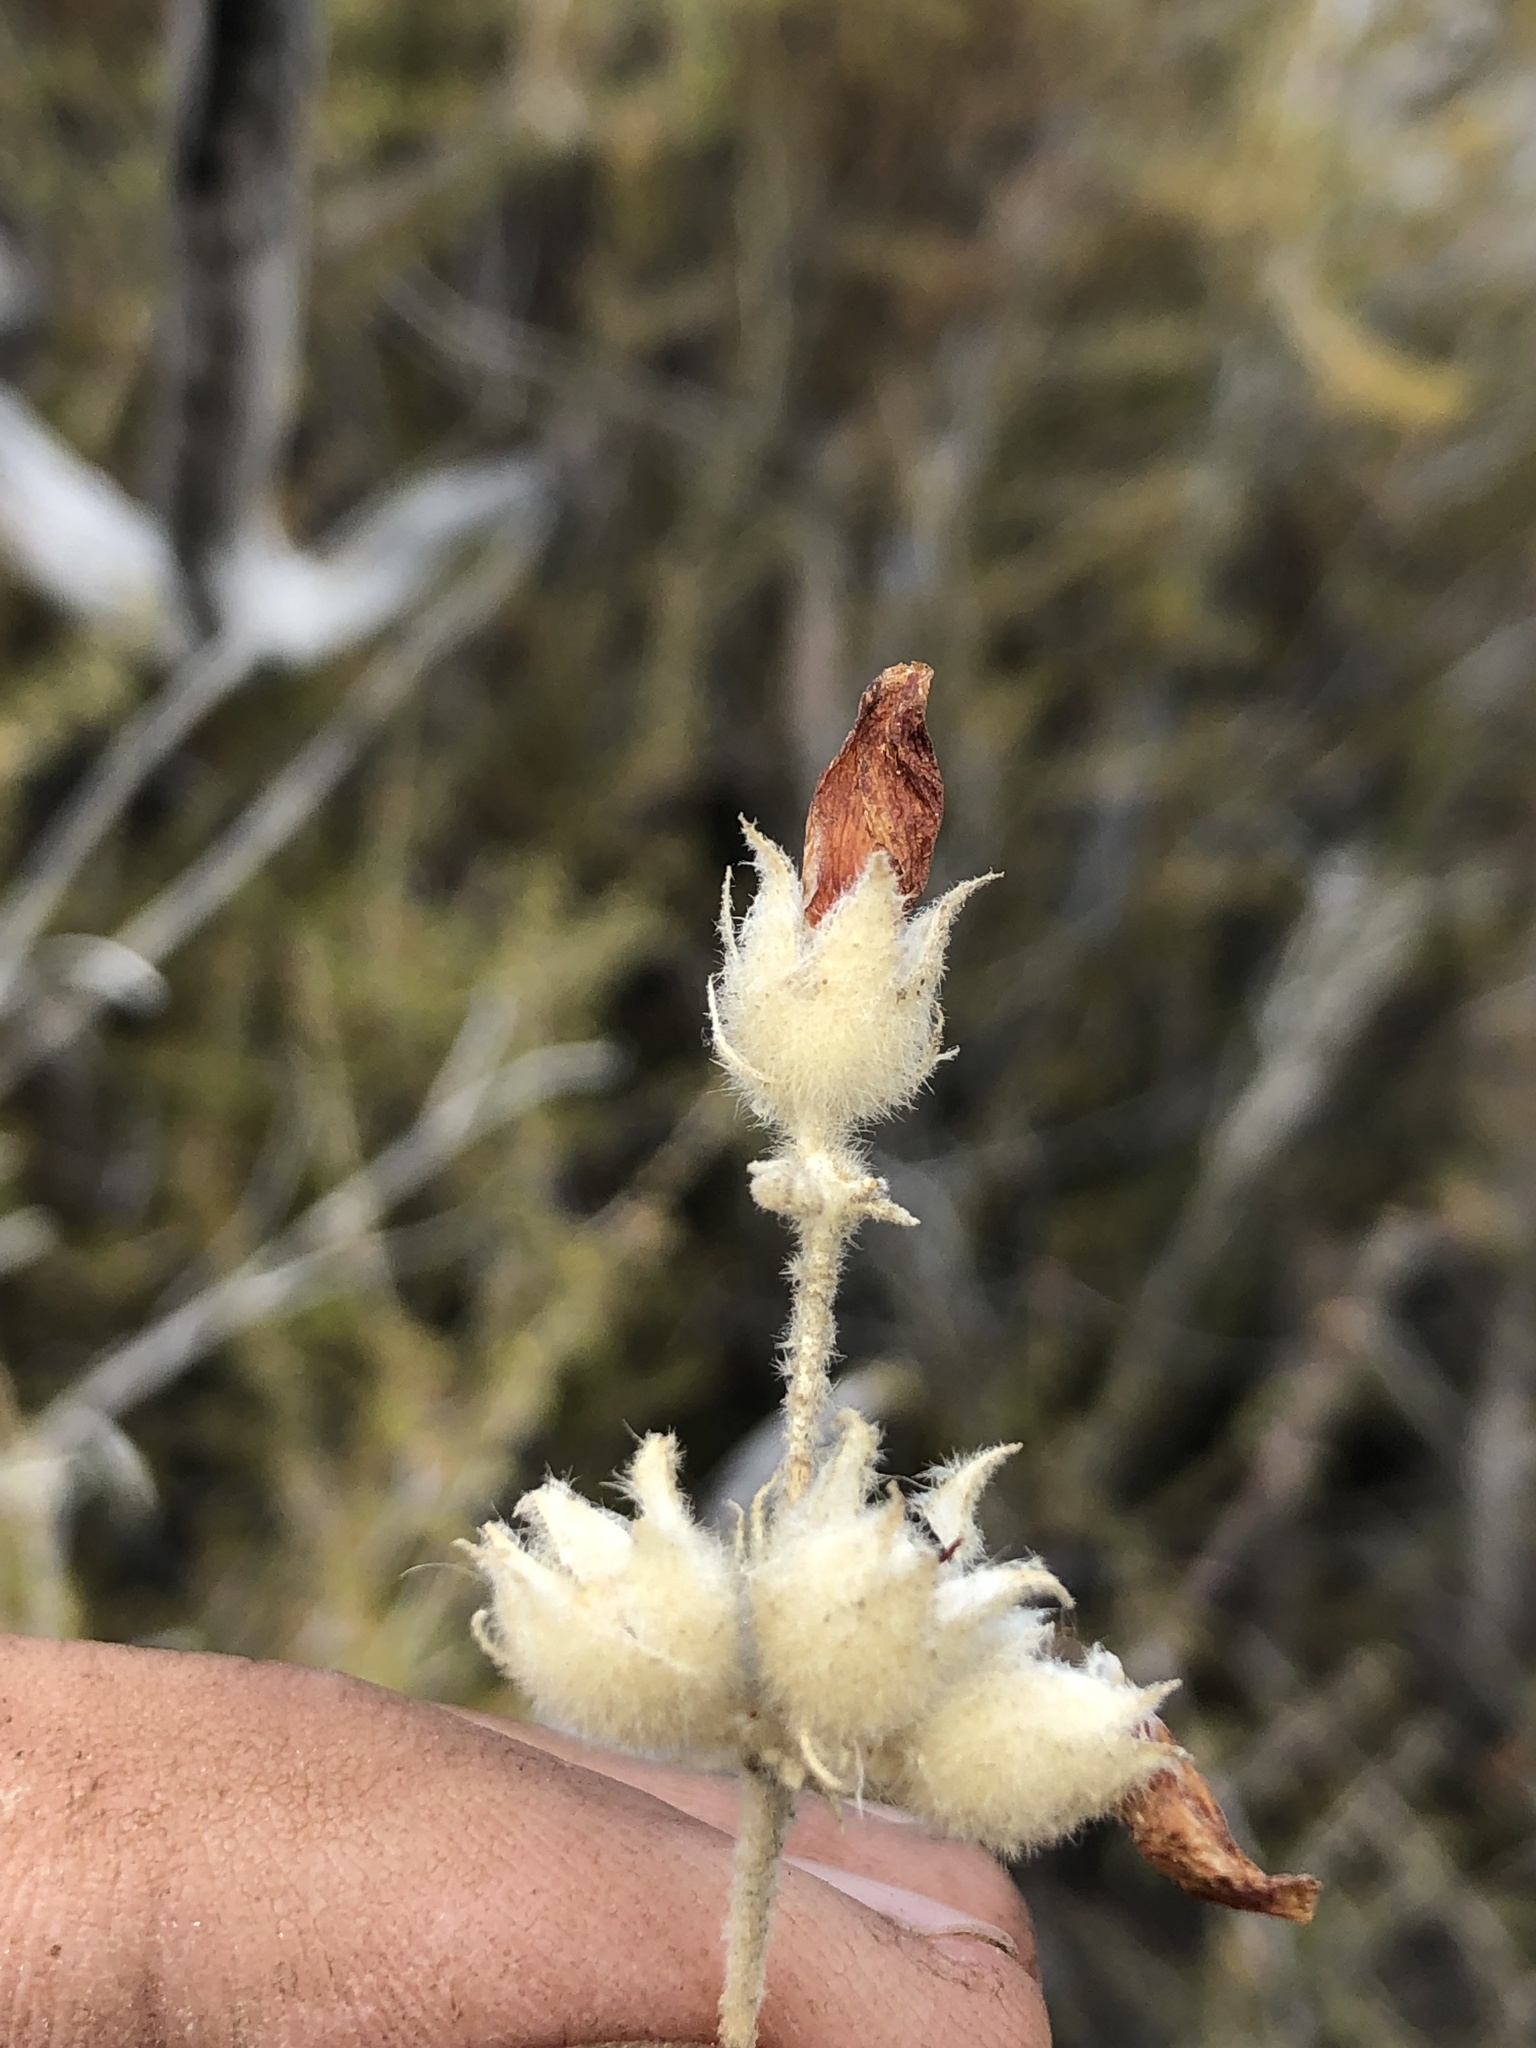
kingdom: Plantae
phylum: Tracheophyta
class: Magnoliopsida
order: Malvales
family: Malvaceae
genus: Malacothamnus
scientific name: Malacothamnus fremontii
